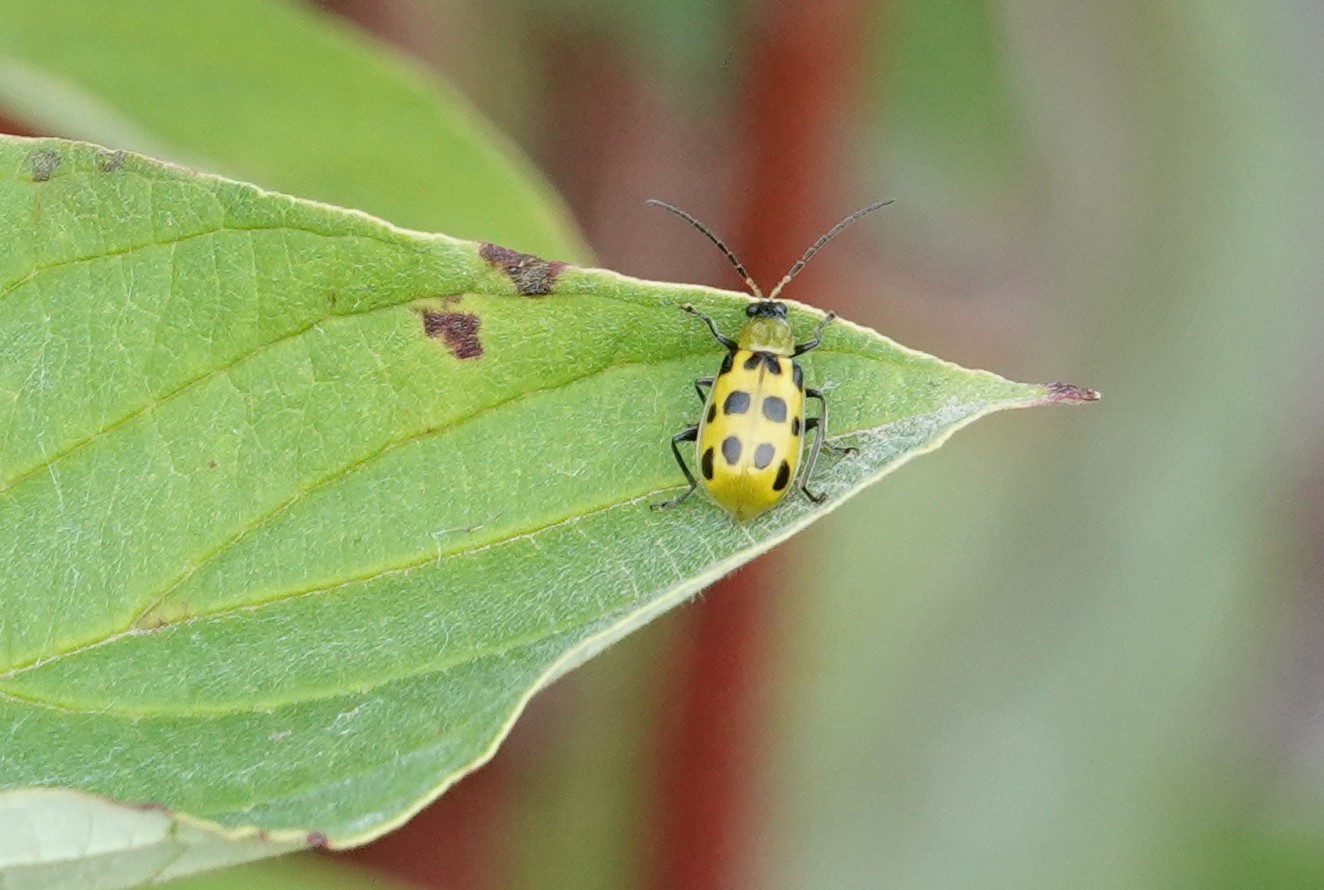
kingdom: Animalia
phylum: Arthropoda
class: Insecta
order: Coleoptera
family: Chrysomelidae
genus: Diabrotica
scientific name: Diabrotica undecimpunctata
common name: Spotted cucumber beetle
